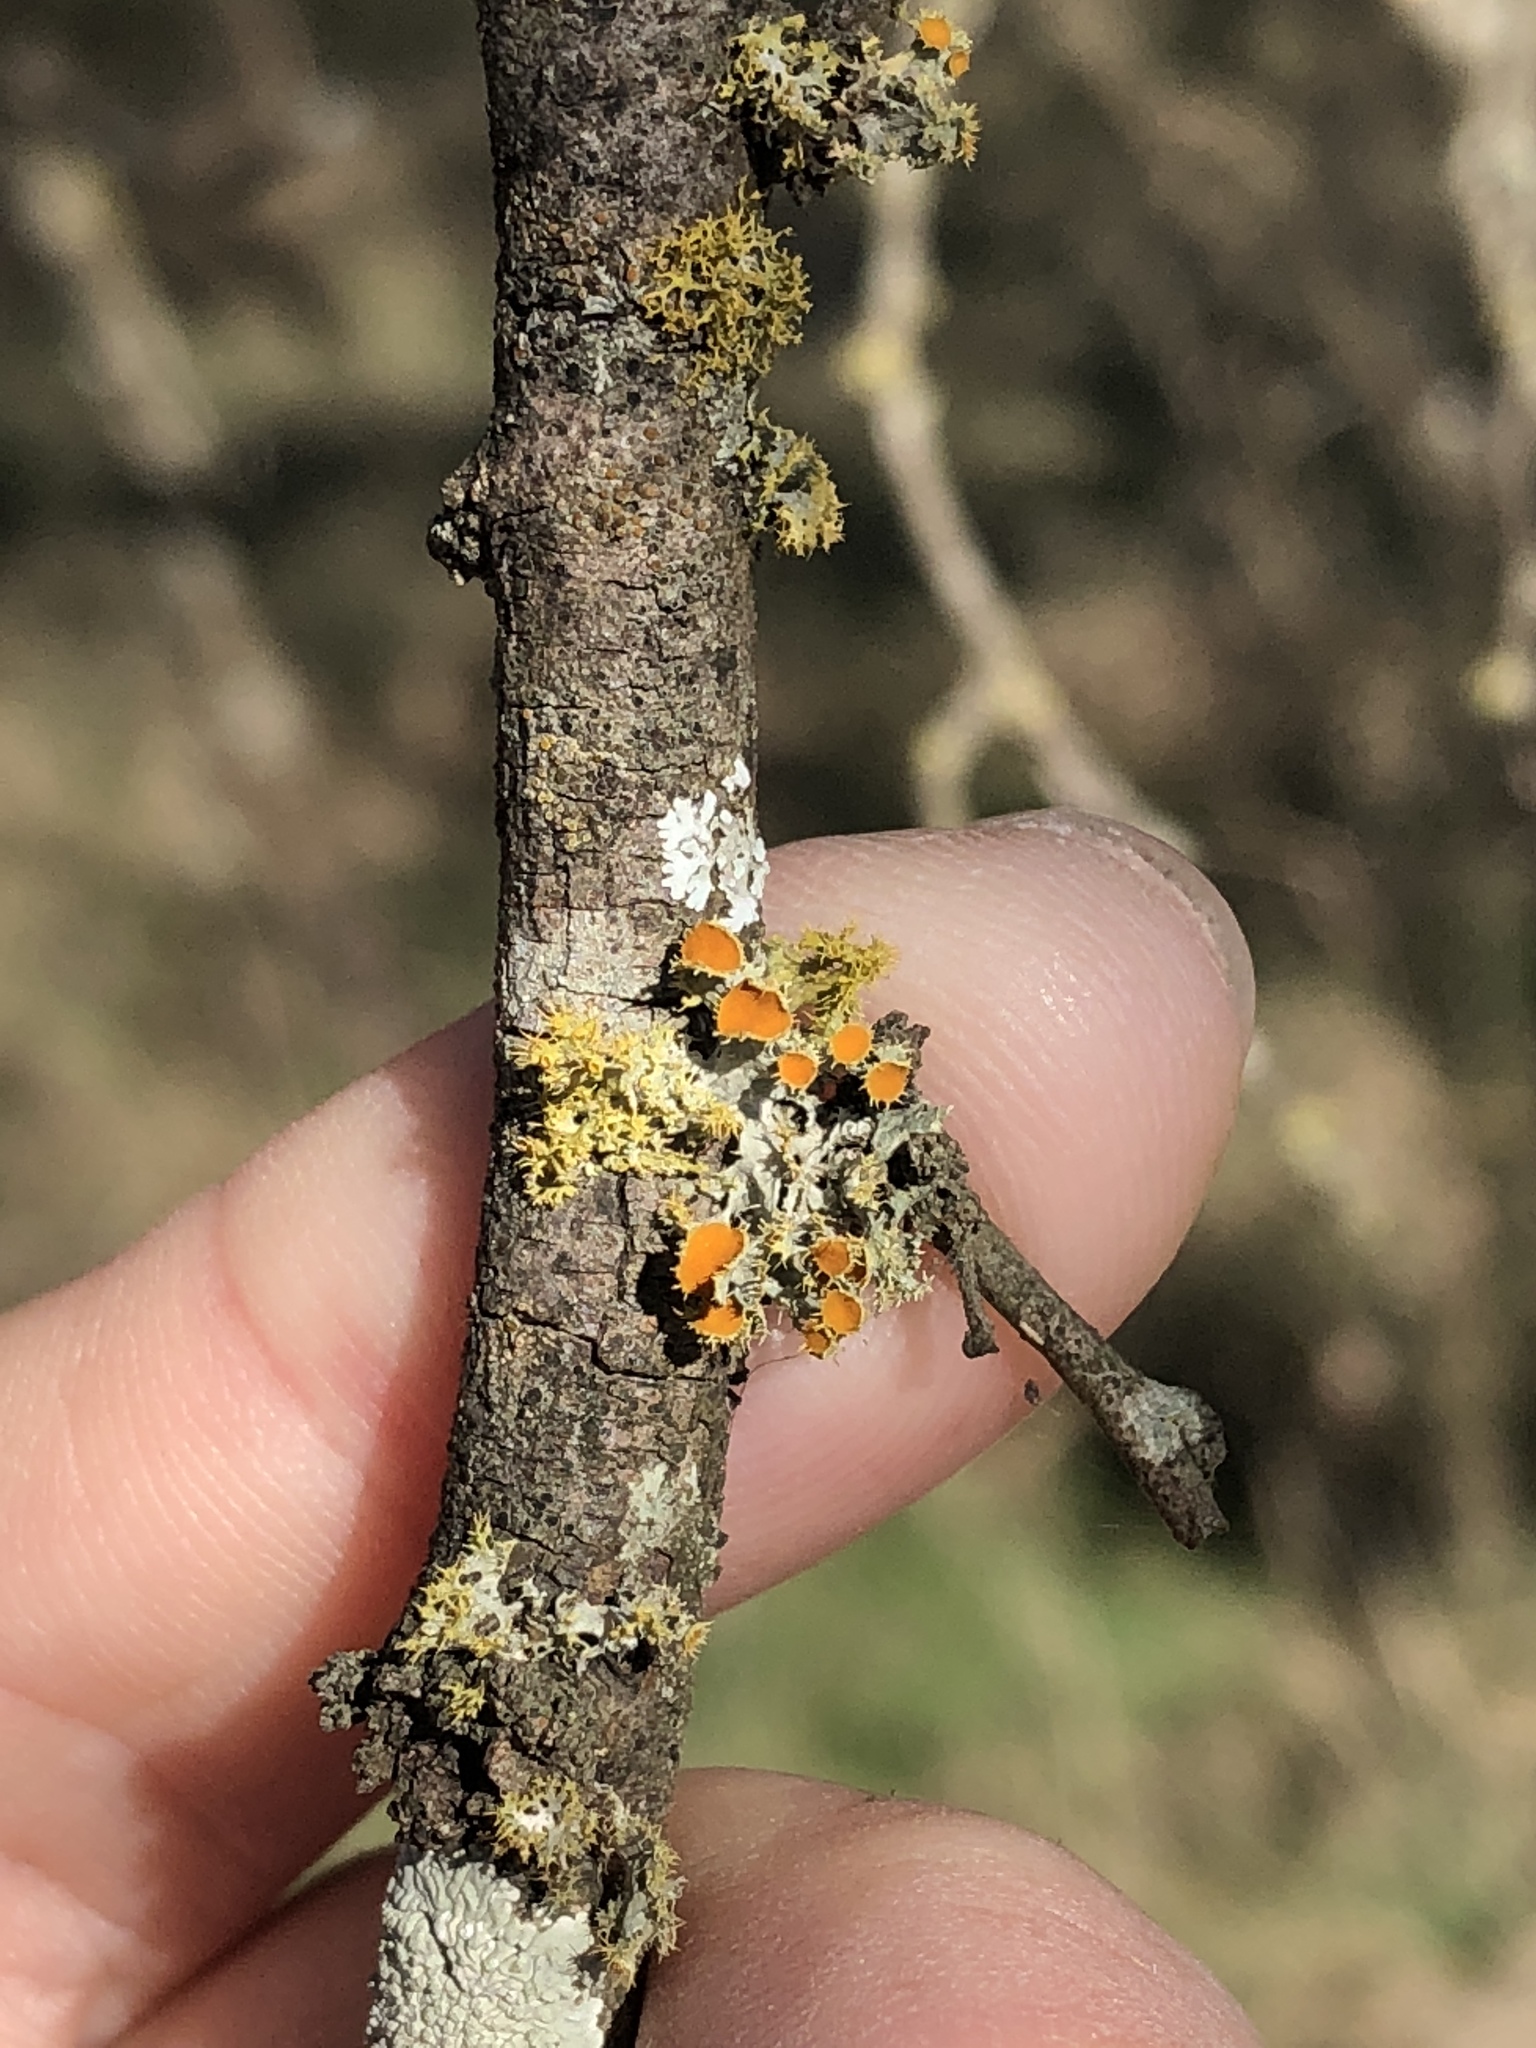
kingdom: Fungi
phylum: Ascomycota
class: Lecanoromycetes
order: Teloschistales
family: Teloschistaceae
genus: Niorma
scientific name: Niorma chrysophthalma
